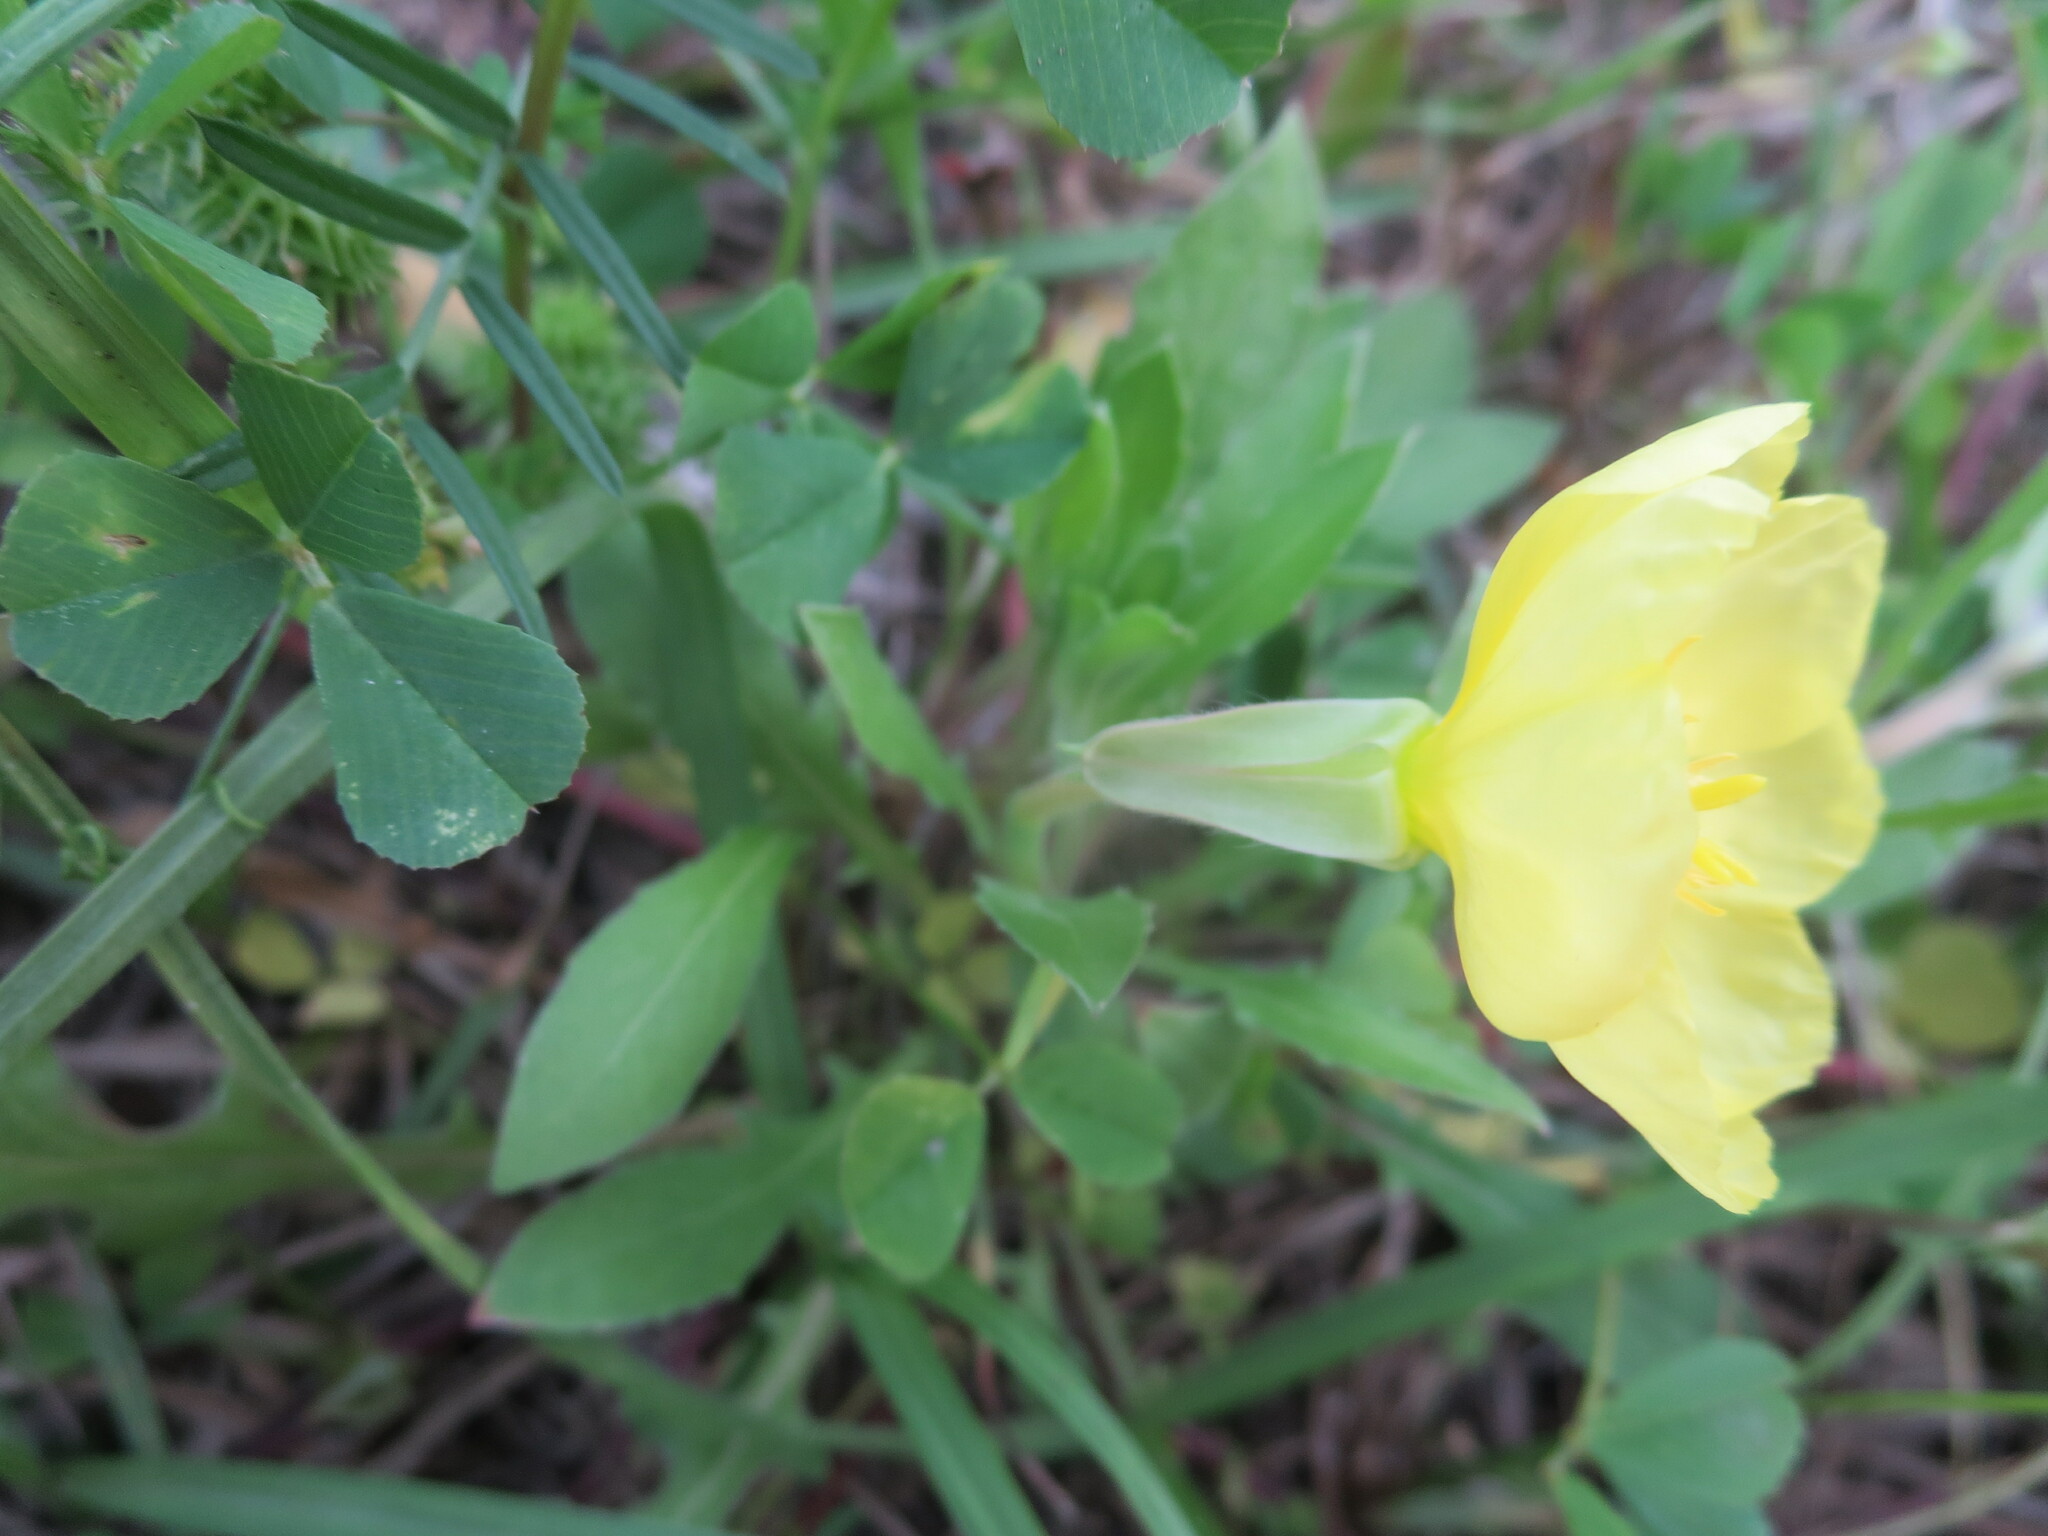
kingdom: Plantae
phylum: Tracheophyta
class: Magnoliopsida
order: Myrtales
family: Onagraceae
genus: Oenothera
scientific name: Oenothera laciniata
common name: Cut-leaved evening-primrose
